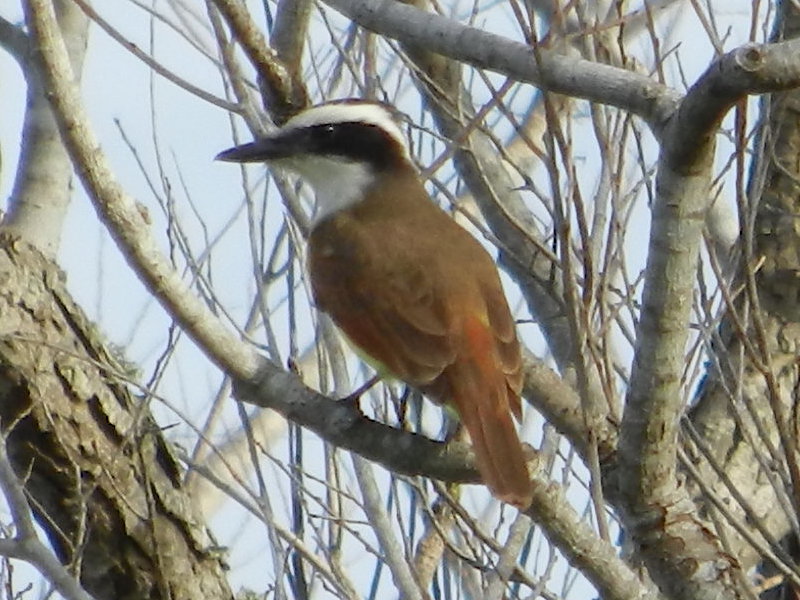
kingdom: Animalia
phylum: Chordata
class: Aves
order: Passeriformes
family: Tyrannidae
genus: Pitangus
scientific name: Pitangus sulphuratus
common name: Great kiskadee
